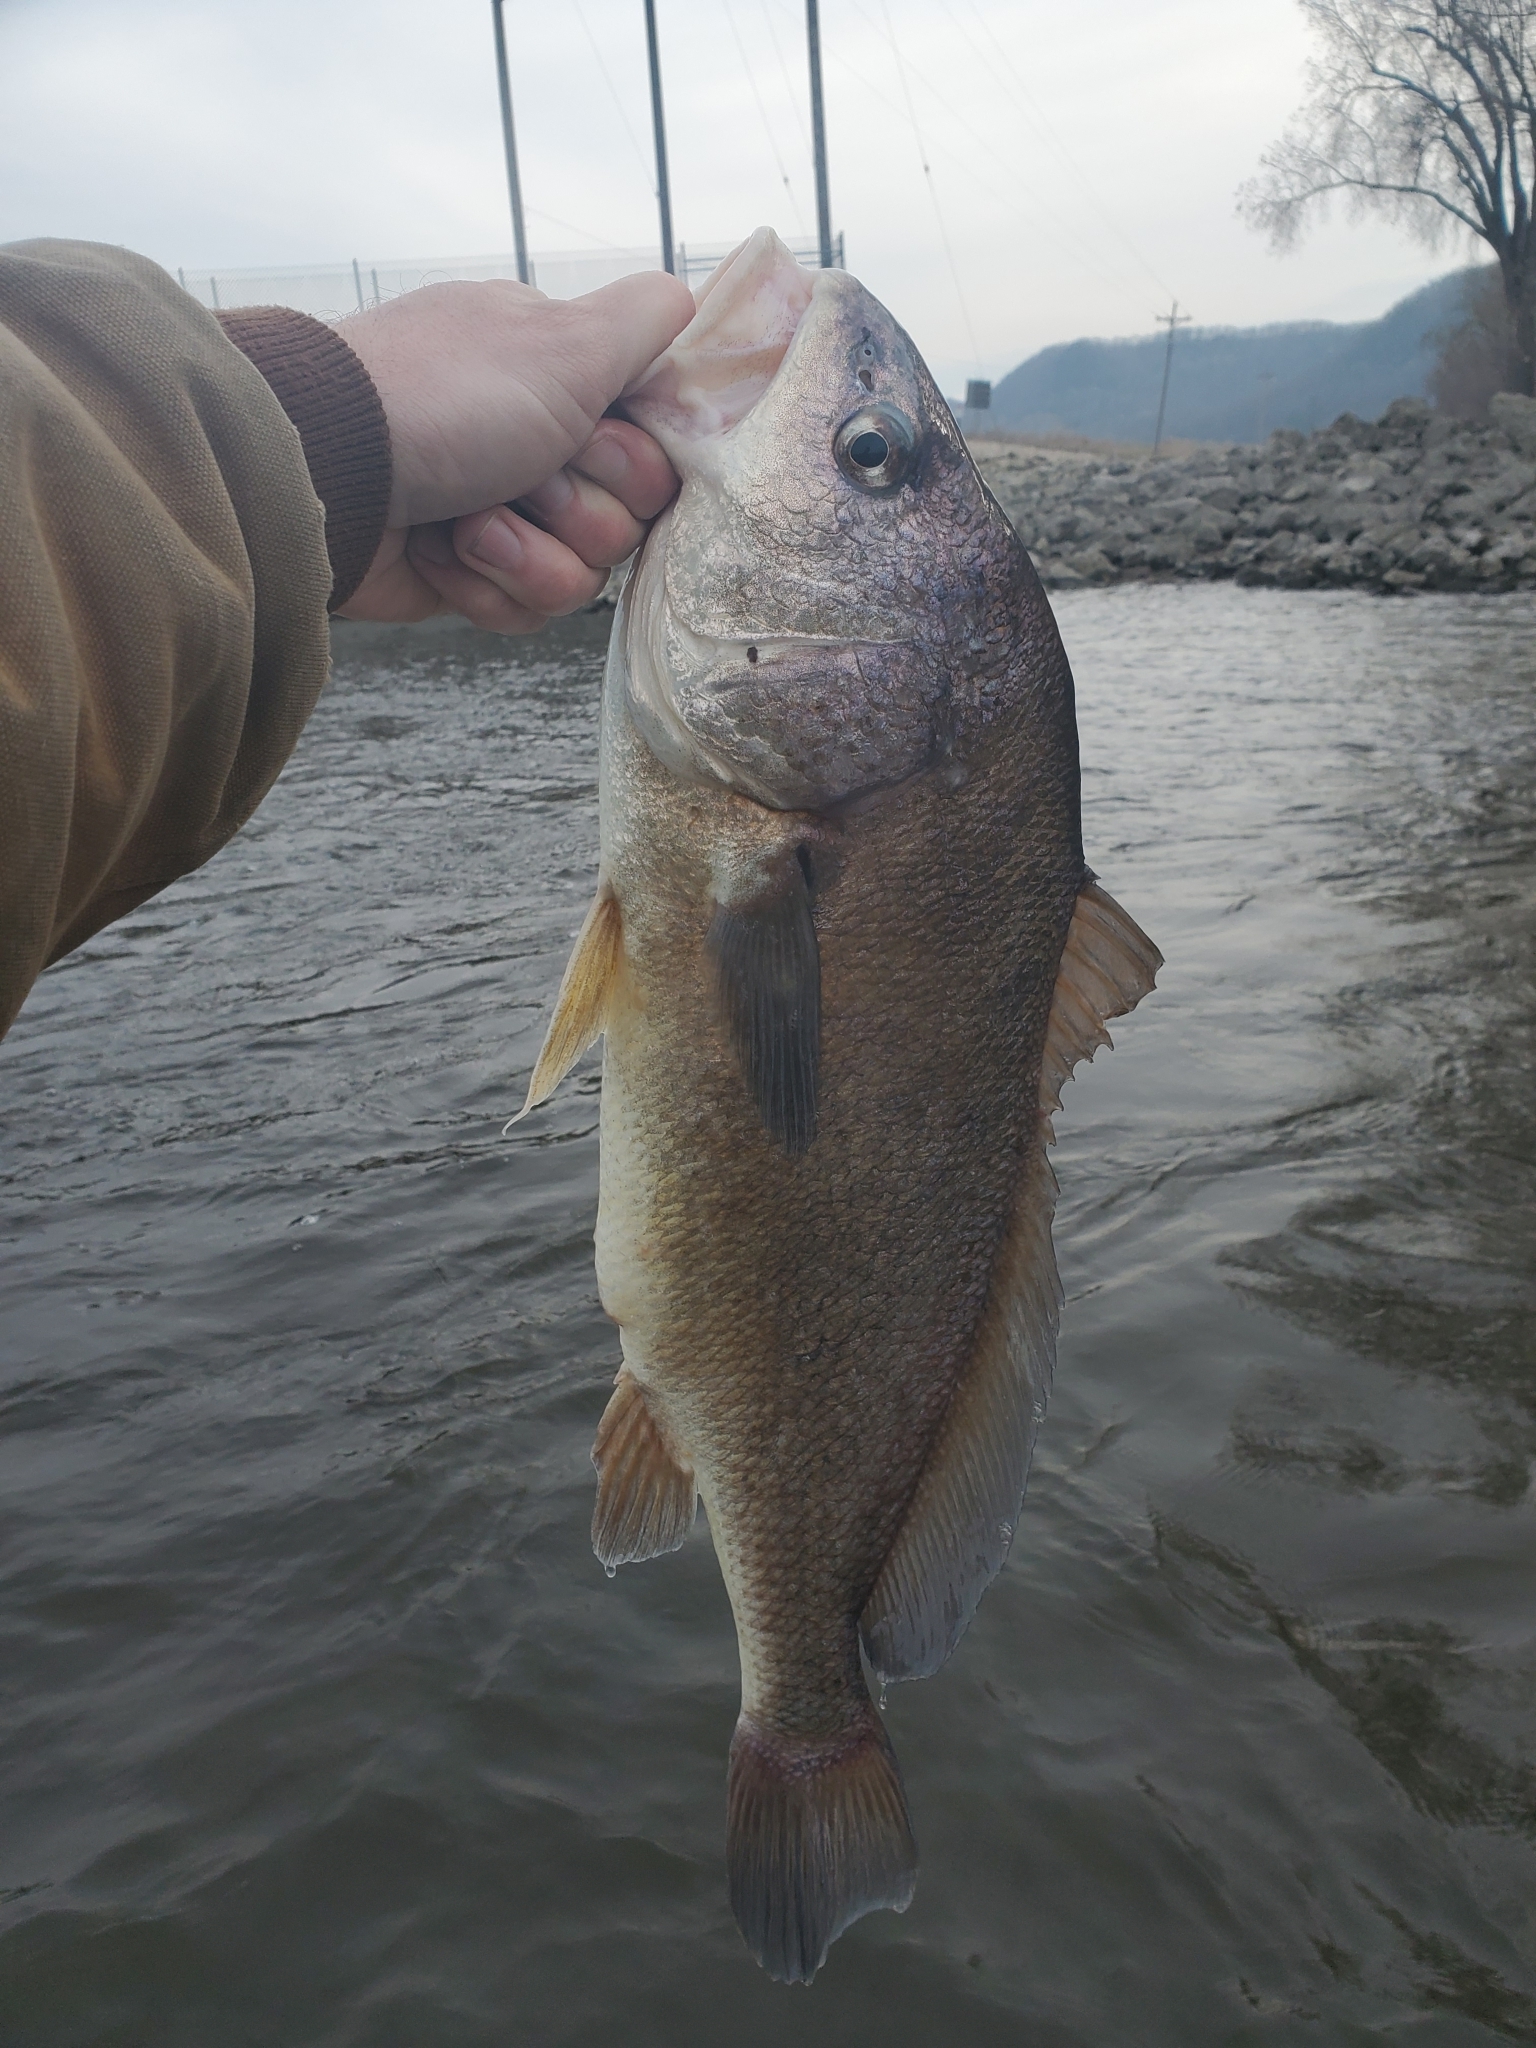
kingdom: Animalia
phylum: Chordata
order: Perciformes
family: Sciaenidae
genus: Aplodinotus
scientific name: Aplodinotus grunniens
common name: Freshwater drum
